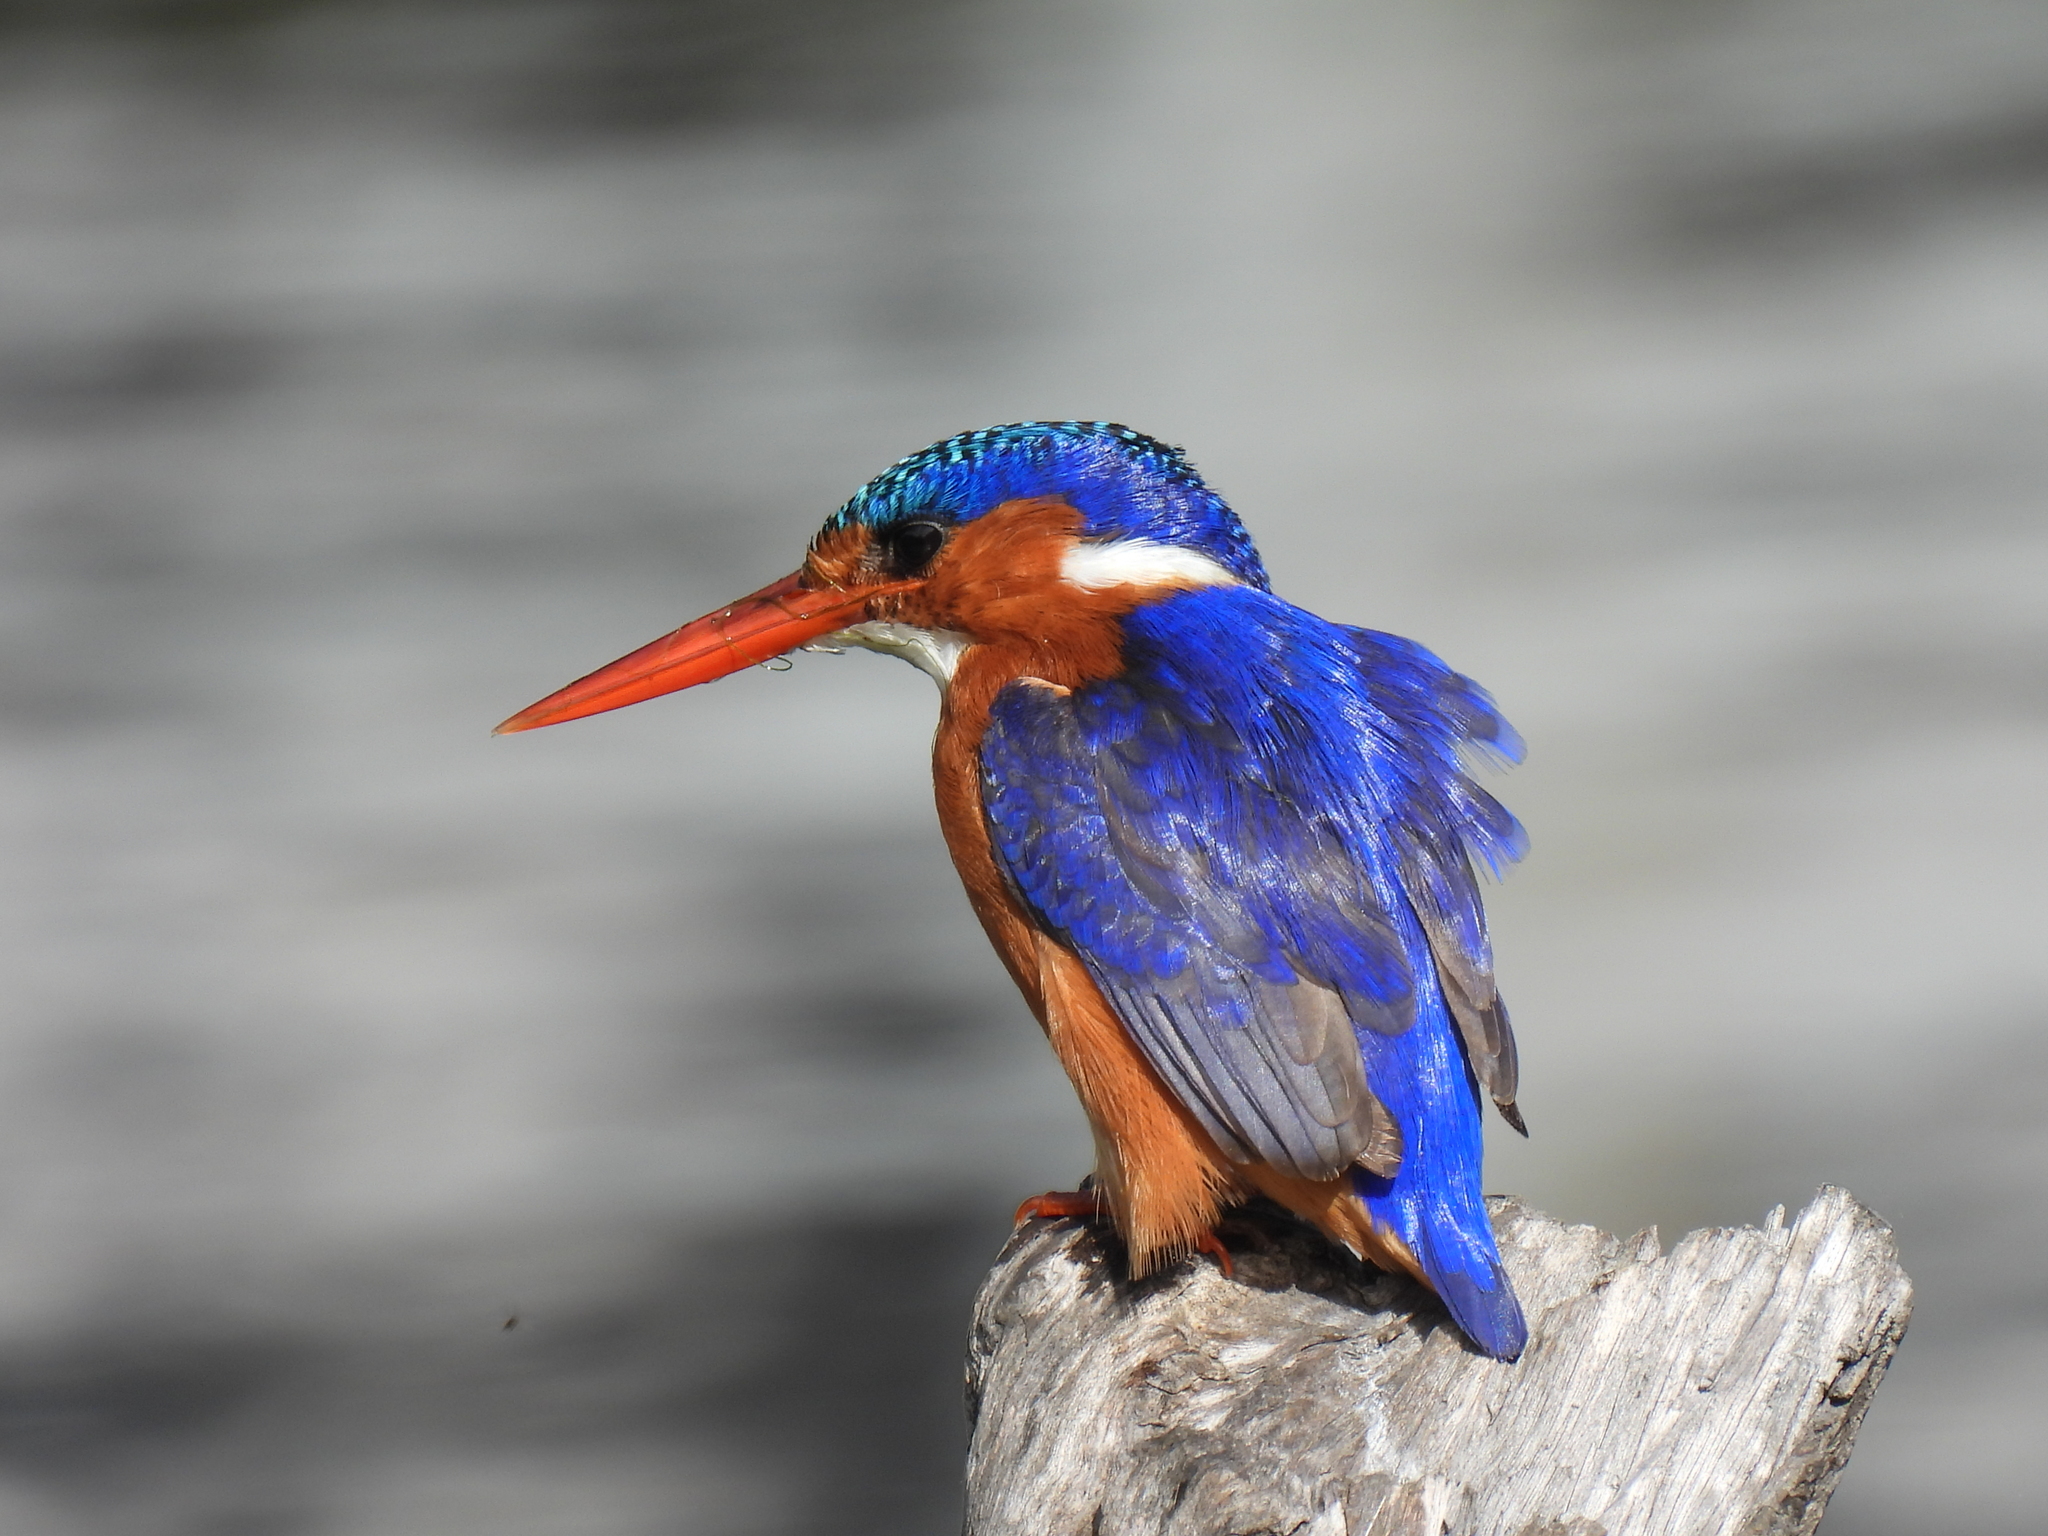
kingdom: Animalia
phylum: Chordata
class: Aves
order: Coraciiformes
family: Alcedinidae
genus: Corythornis
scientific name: Corythornis cristatus
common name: Malachite kingfisher
